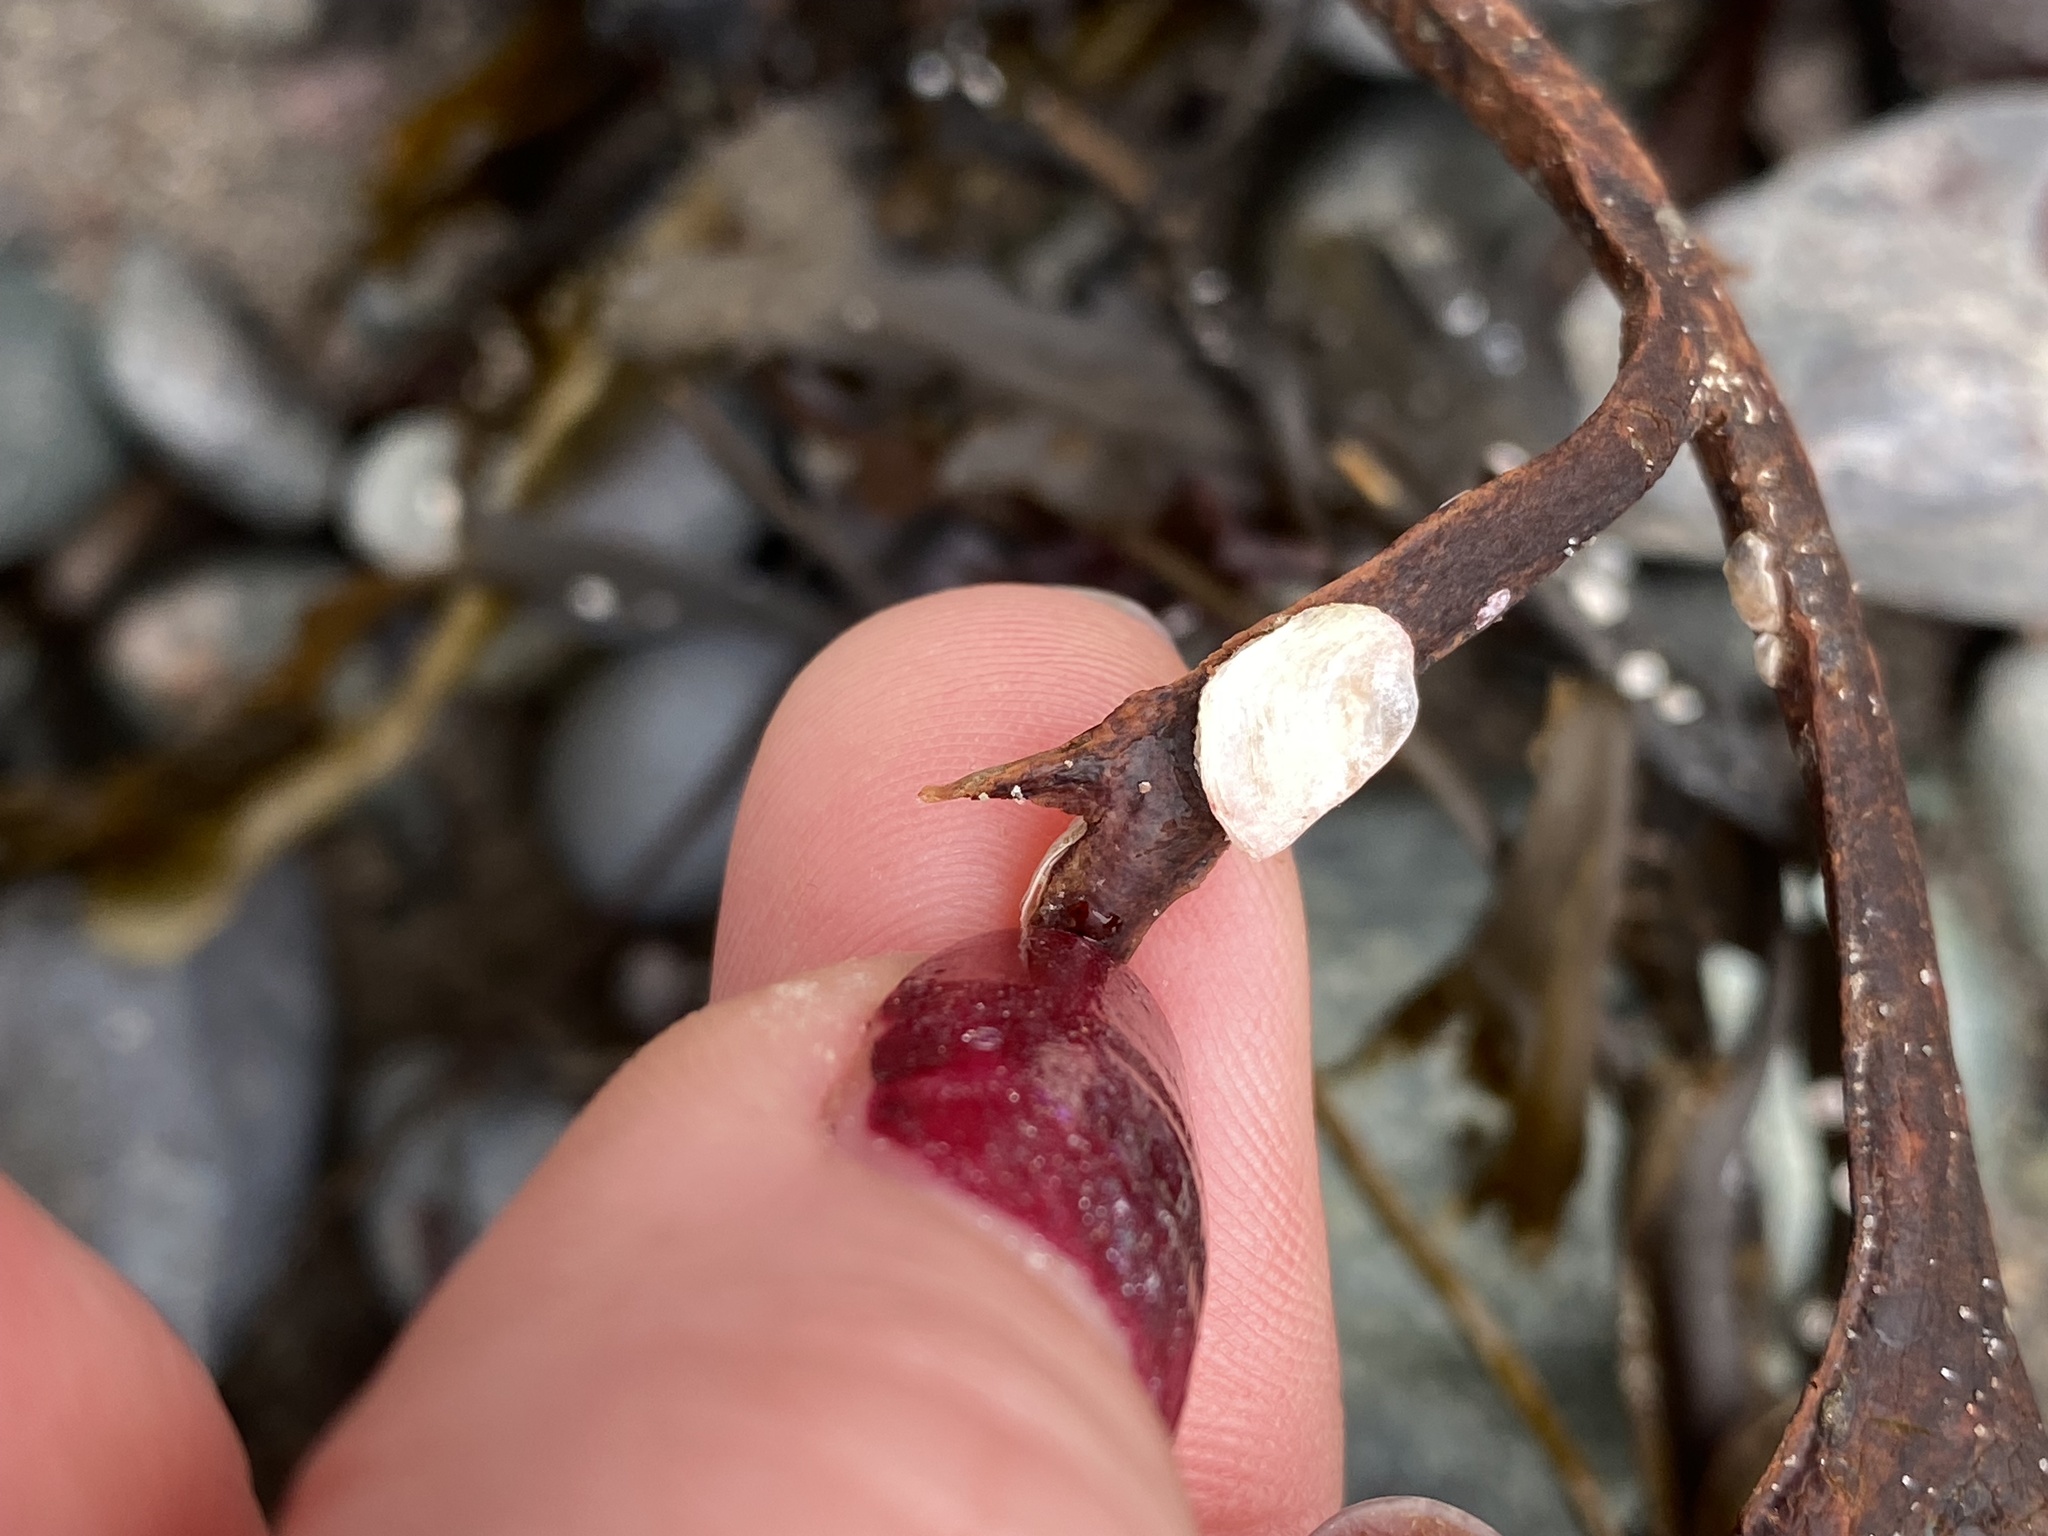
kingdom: Animalia
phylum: Mollusca
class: Bivalvia
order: Ostreida
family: Ostreidae
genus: Crassostrea
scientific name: Crassostrea virginica
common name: American oyster
